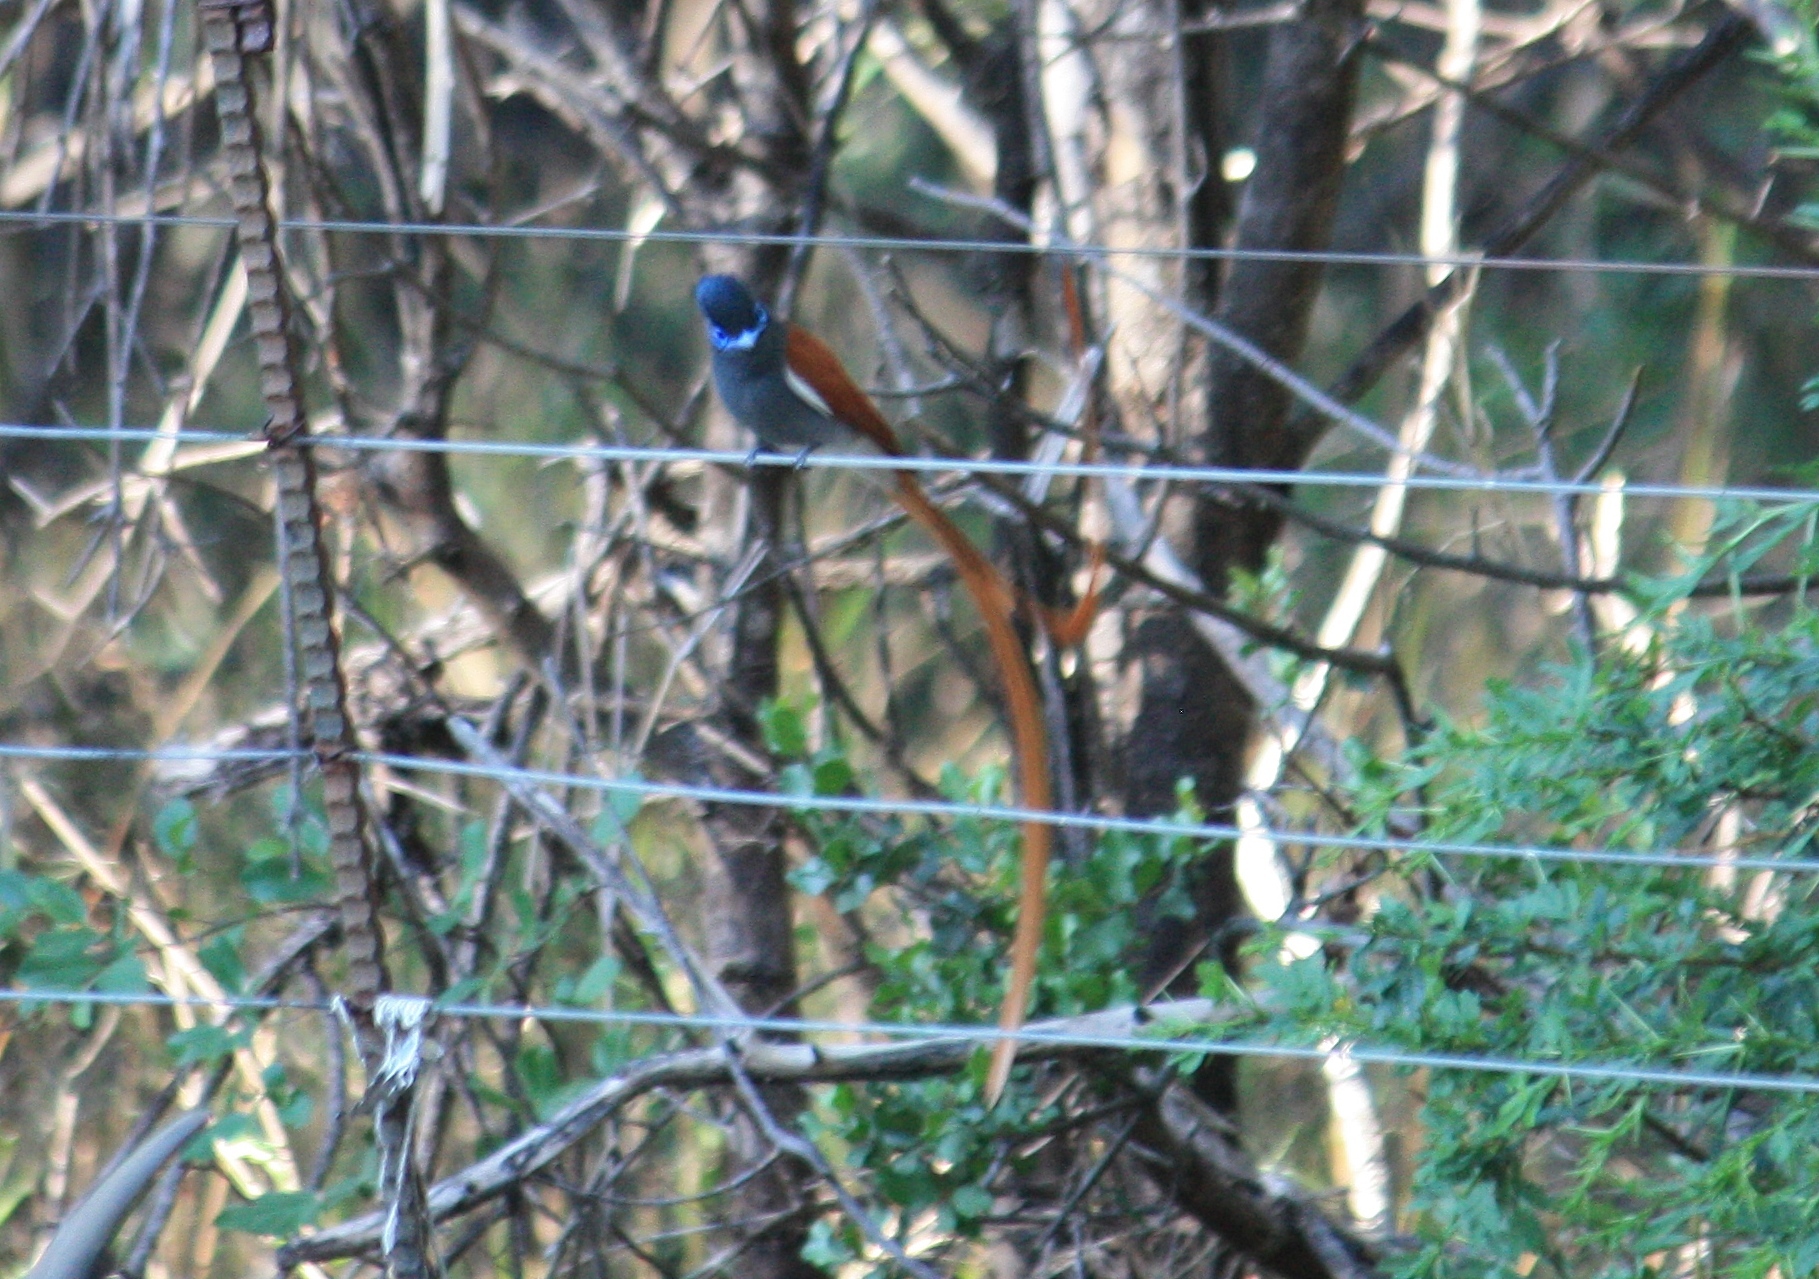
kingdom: Animalia
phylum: Chordata
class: Aves
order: Passeriformes
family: Monarchidae
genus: Terpsiphone
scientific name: Terpsiphone viridis
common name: African paradise flycatcher
